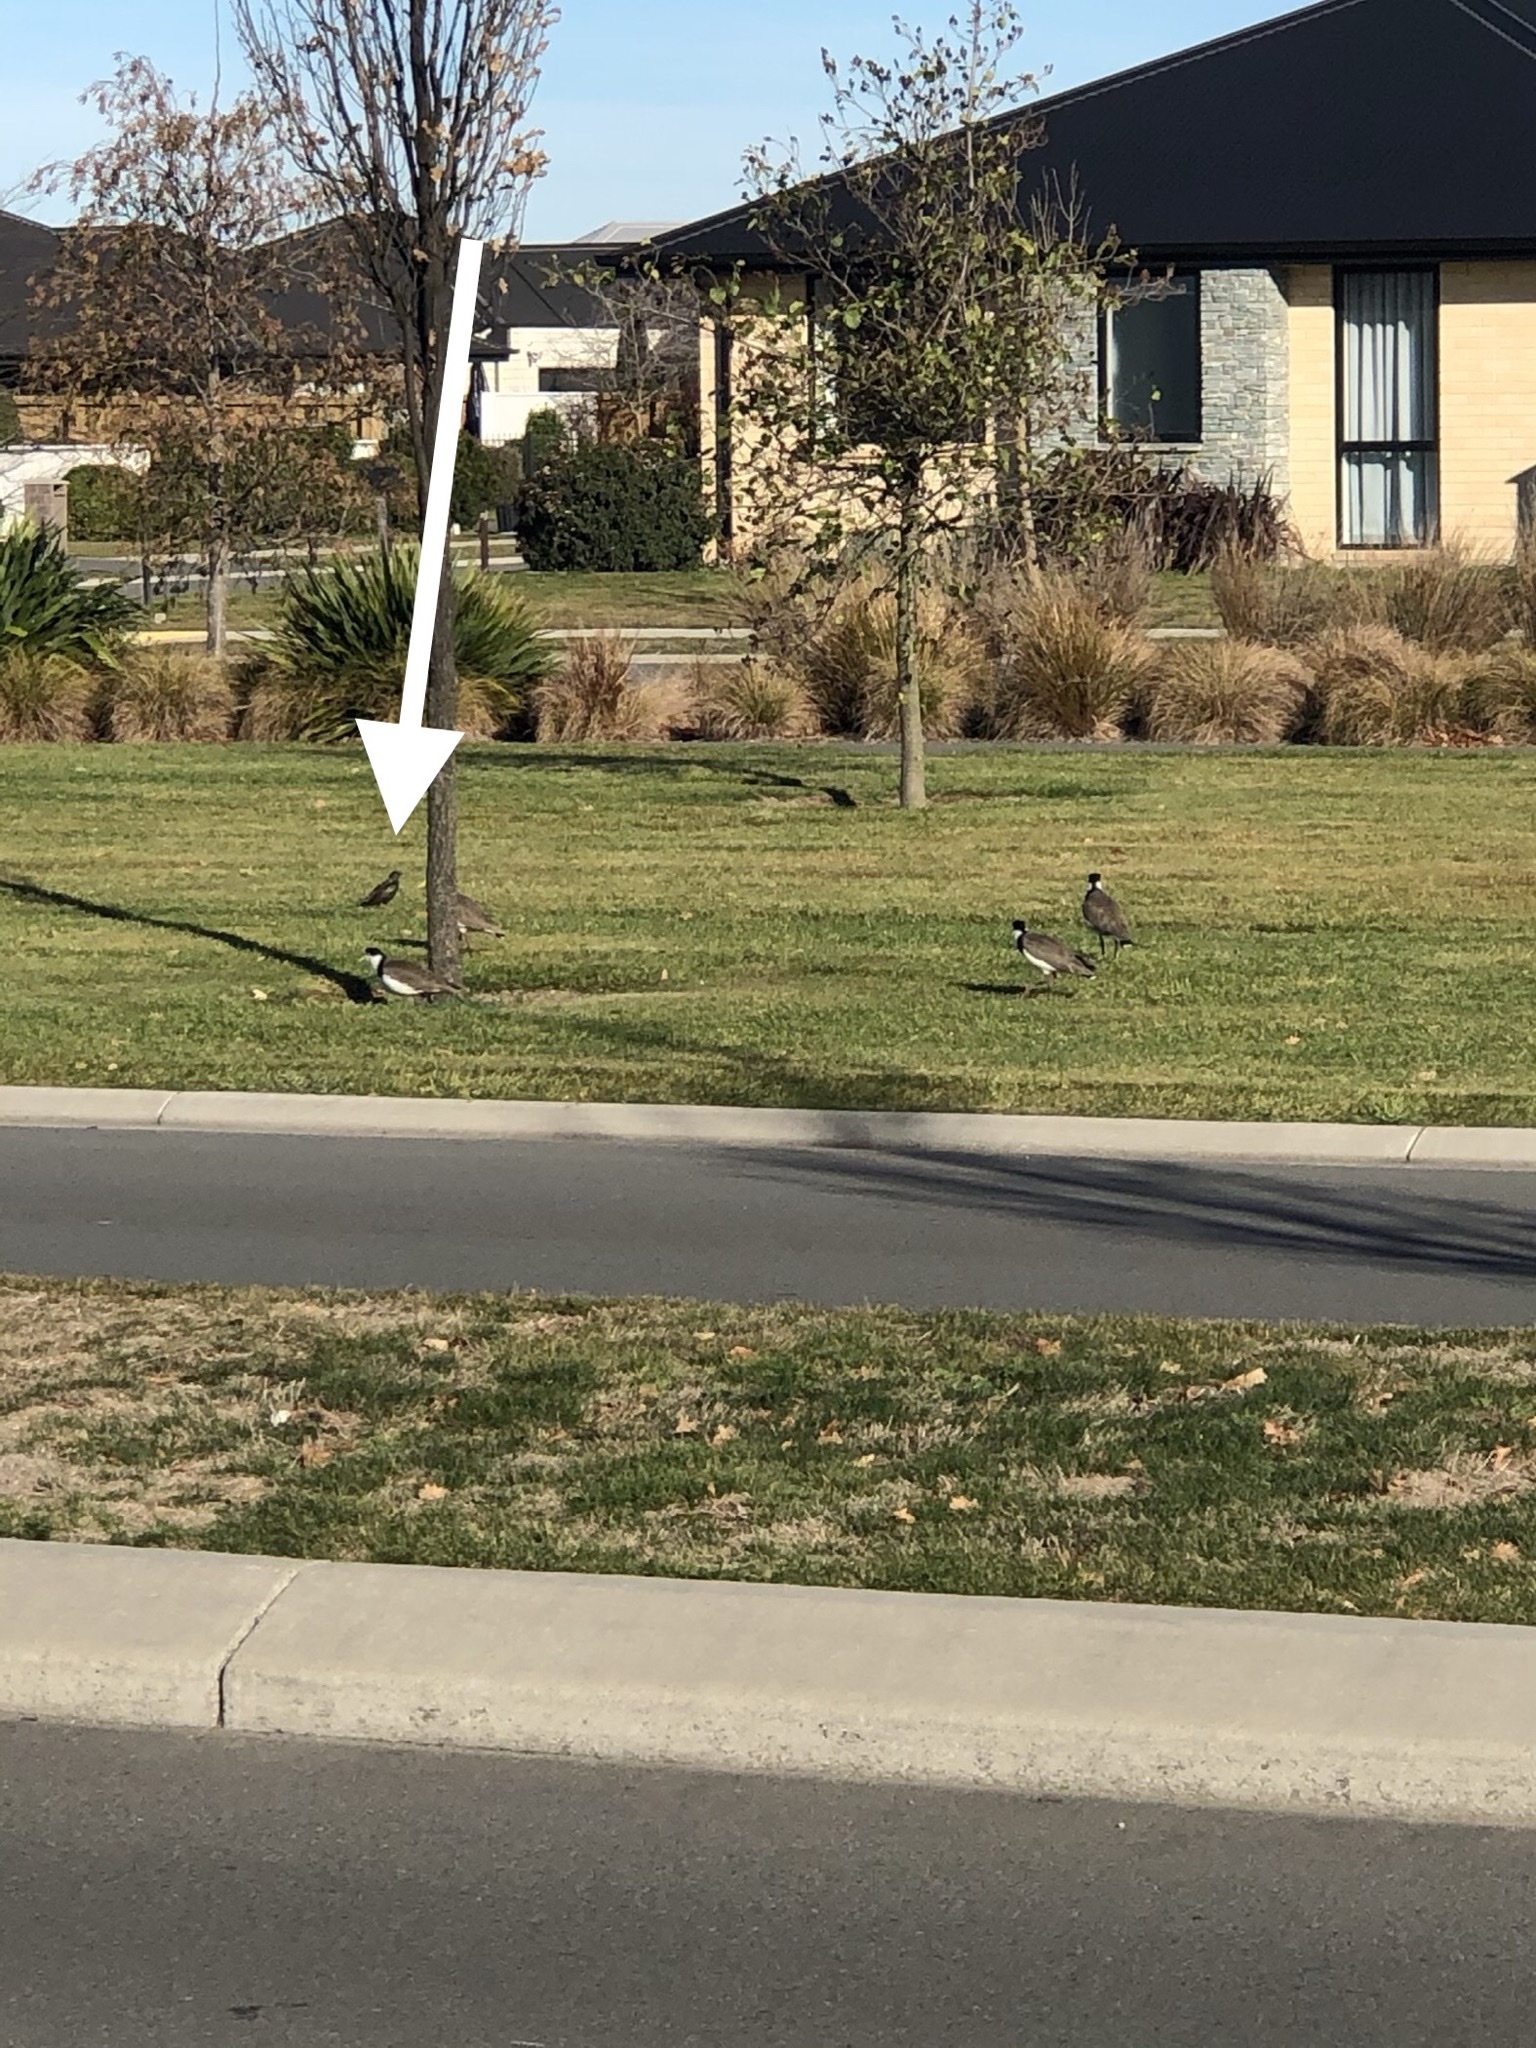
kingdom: Animalia
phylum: Chordata
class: Aves
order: Passeriformes
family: Sturnidae
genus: Sturnus
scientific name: Sturnus vulgaris
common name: Common starling
